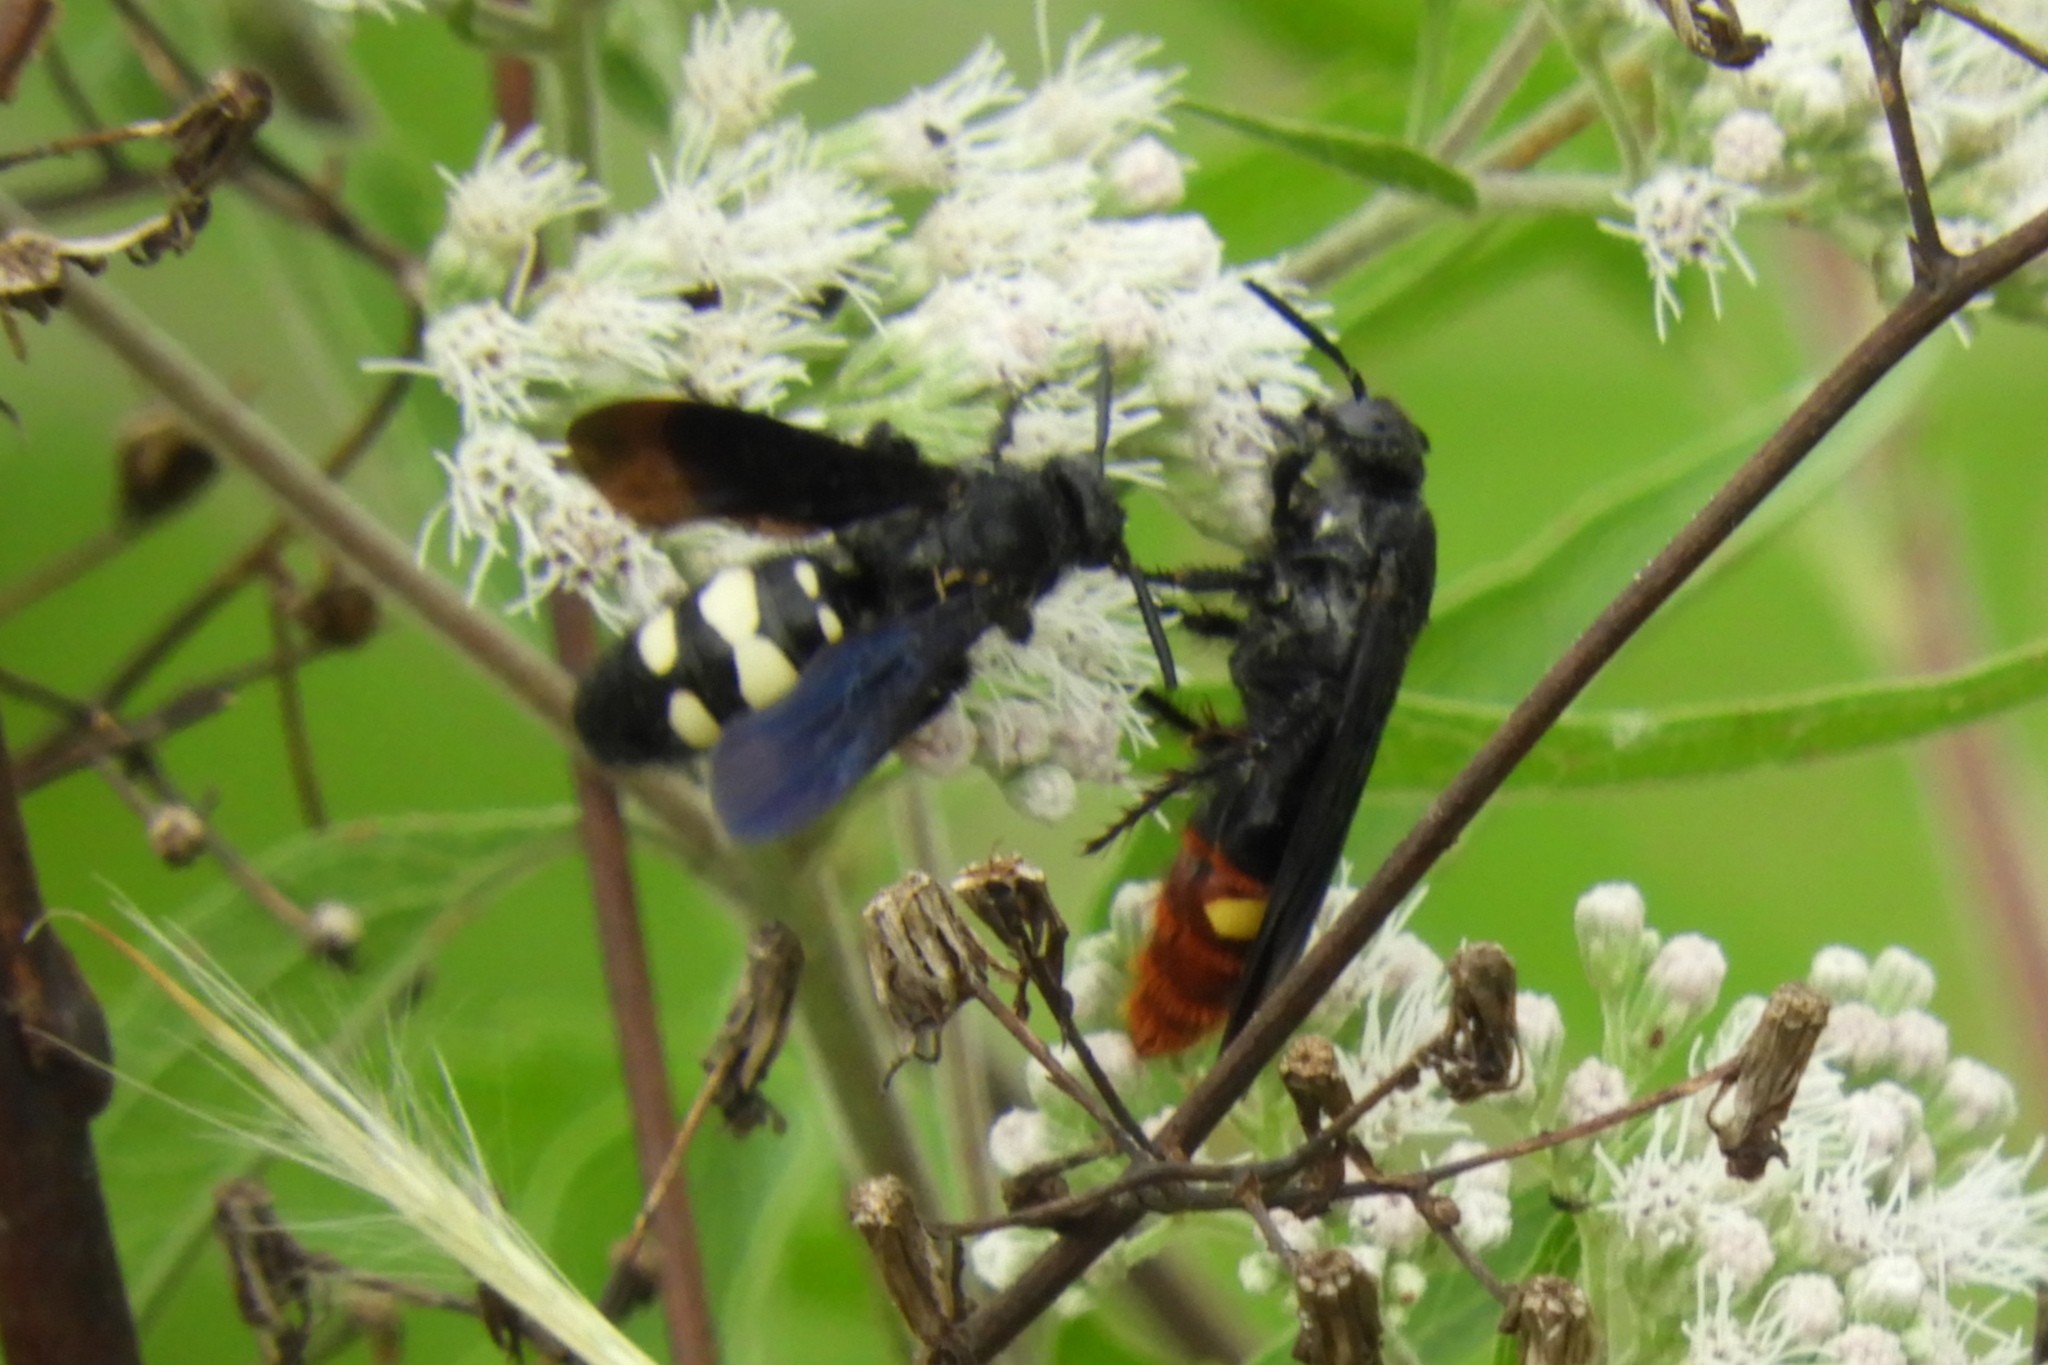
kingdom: Animalia
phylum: Arthropoda
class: Insecta
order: Hymenoptera
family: Scoliidae
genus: Scolia
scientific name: Scolia bicincta
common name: Double-banded scoliid wasp
